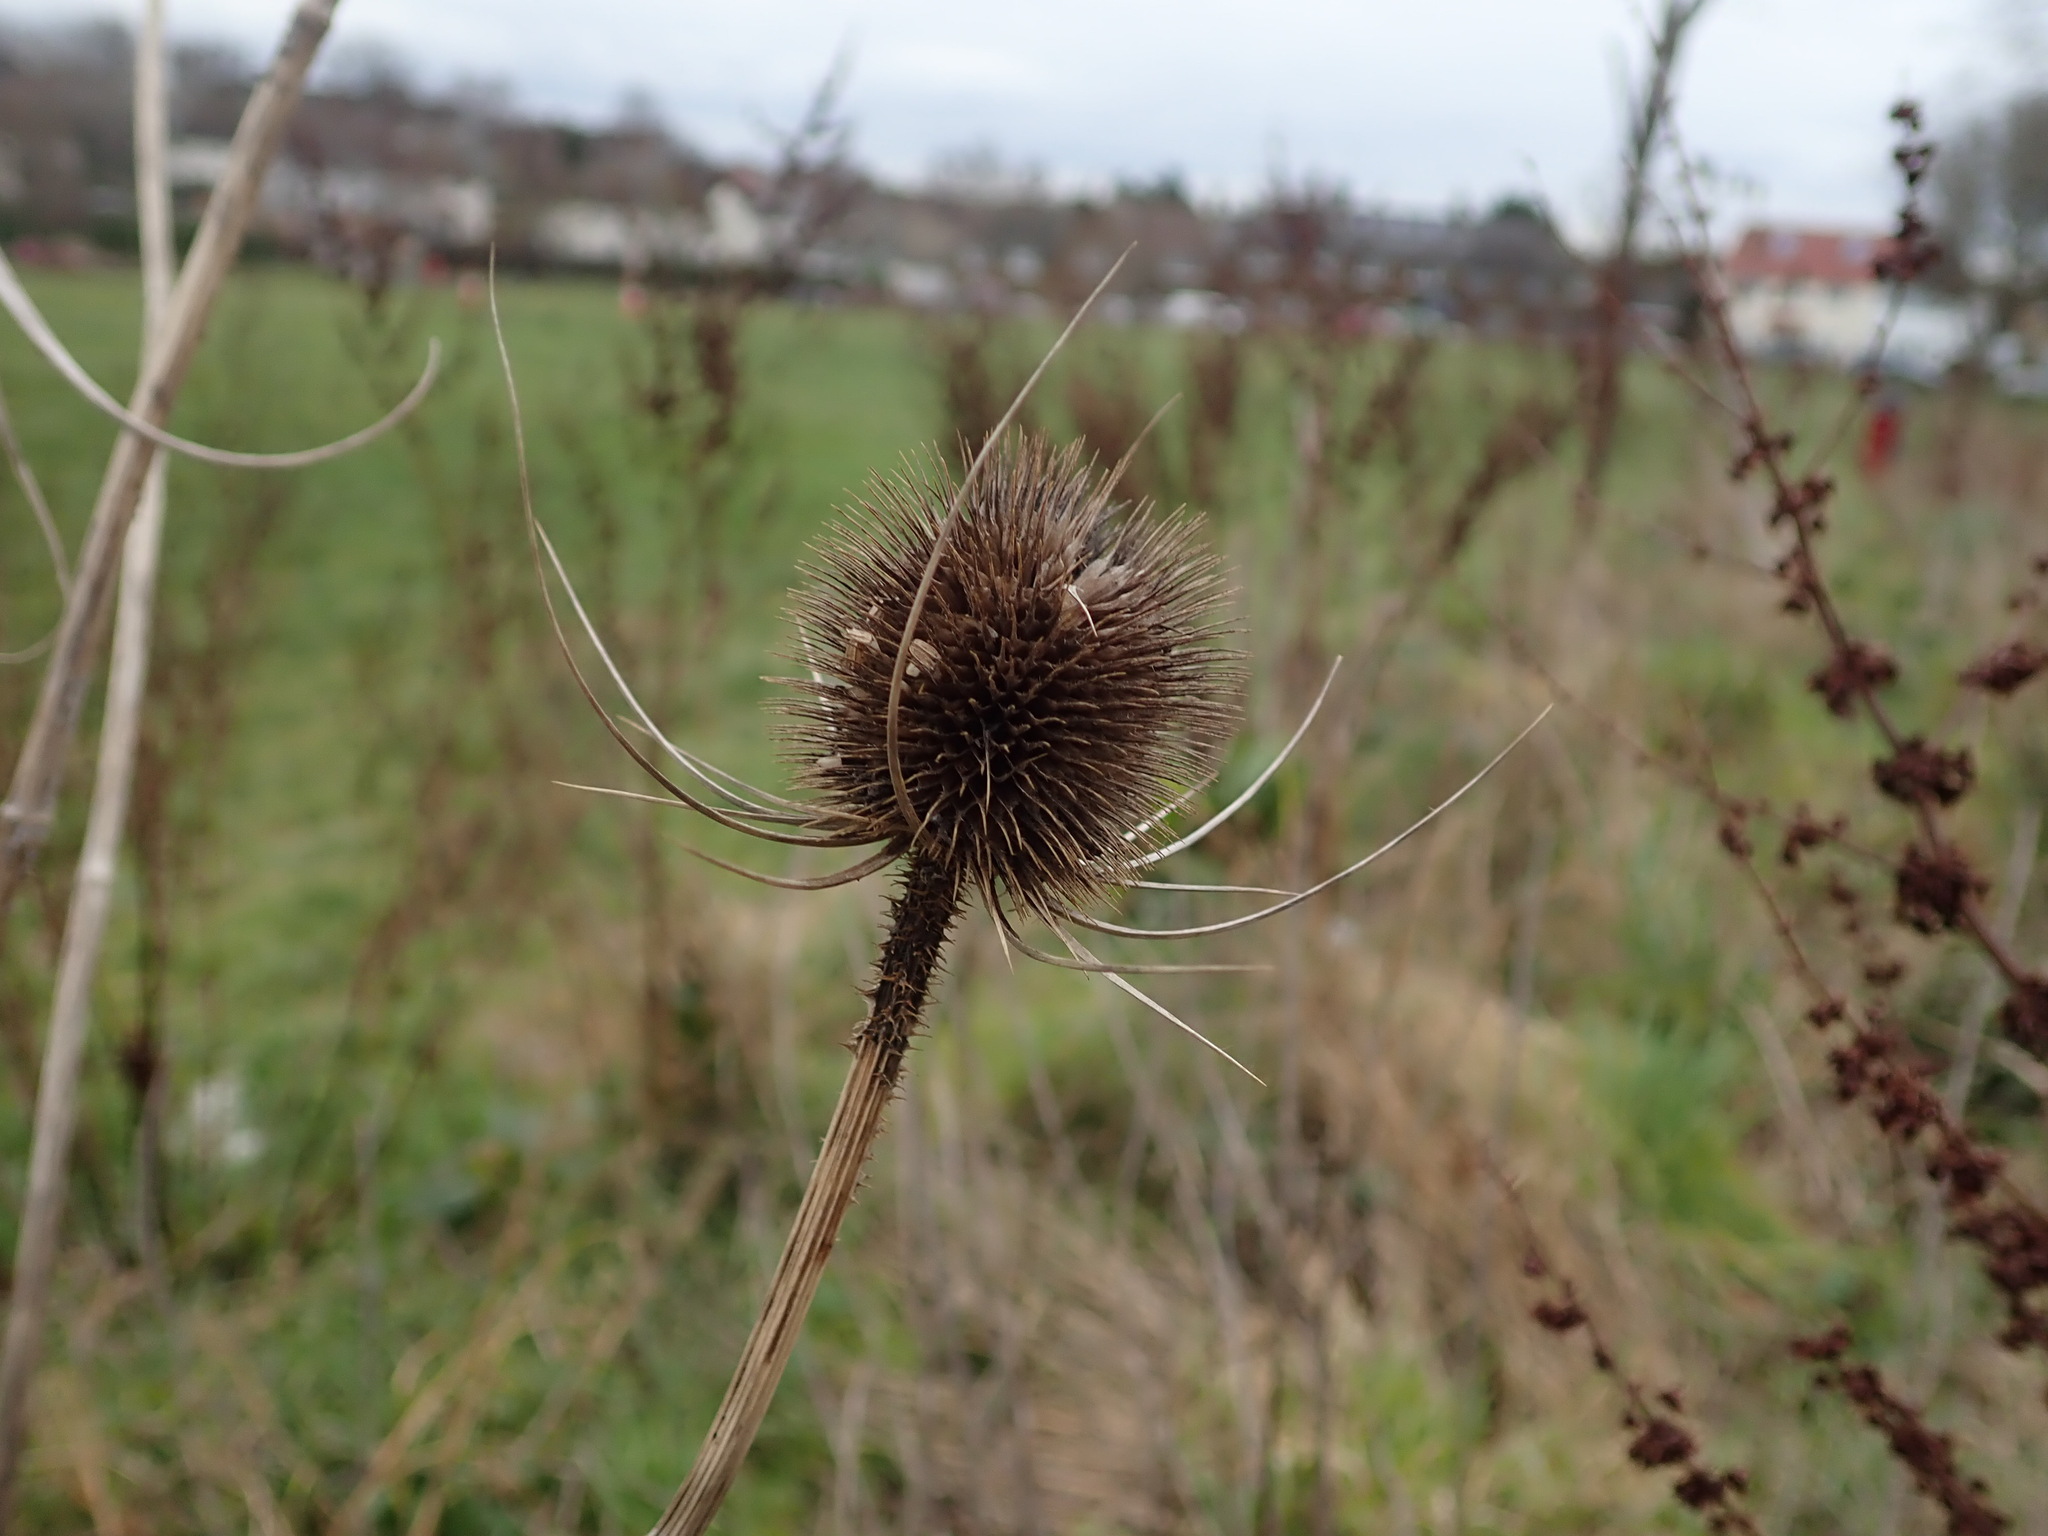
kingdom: Plantae
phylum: Tracheophyta
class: Magnoliopsida
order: Dipsacales
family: Caprifoliaceae
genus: Dipsacus
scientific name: Dipsacus fullonum
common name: Teasel
